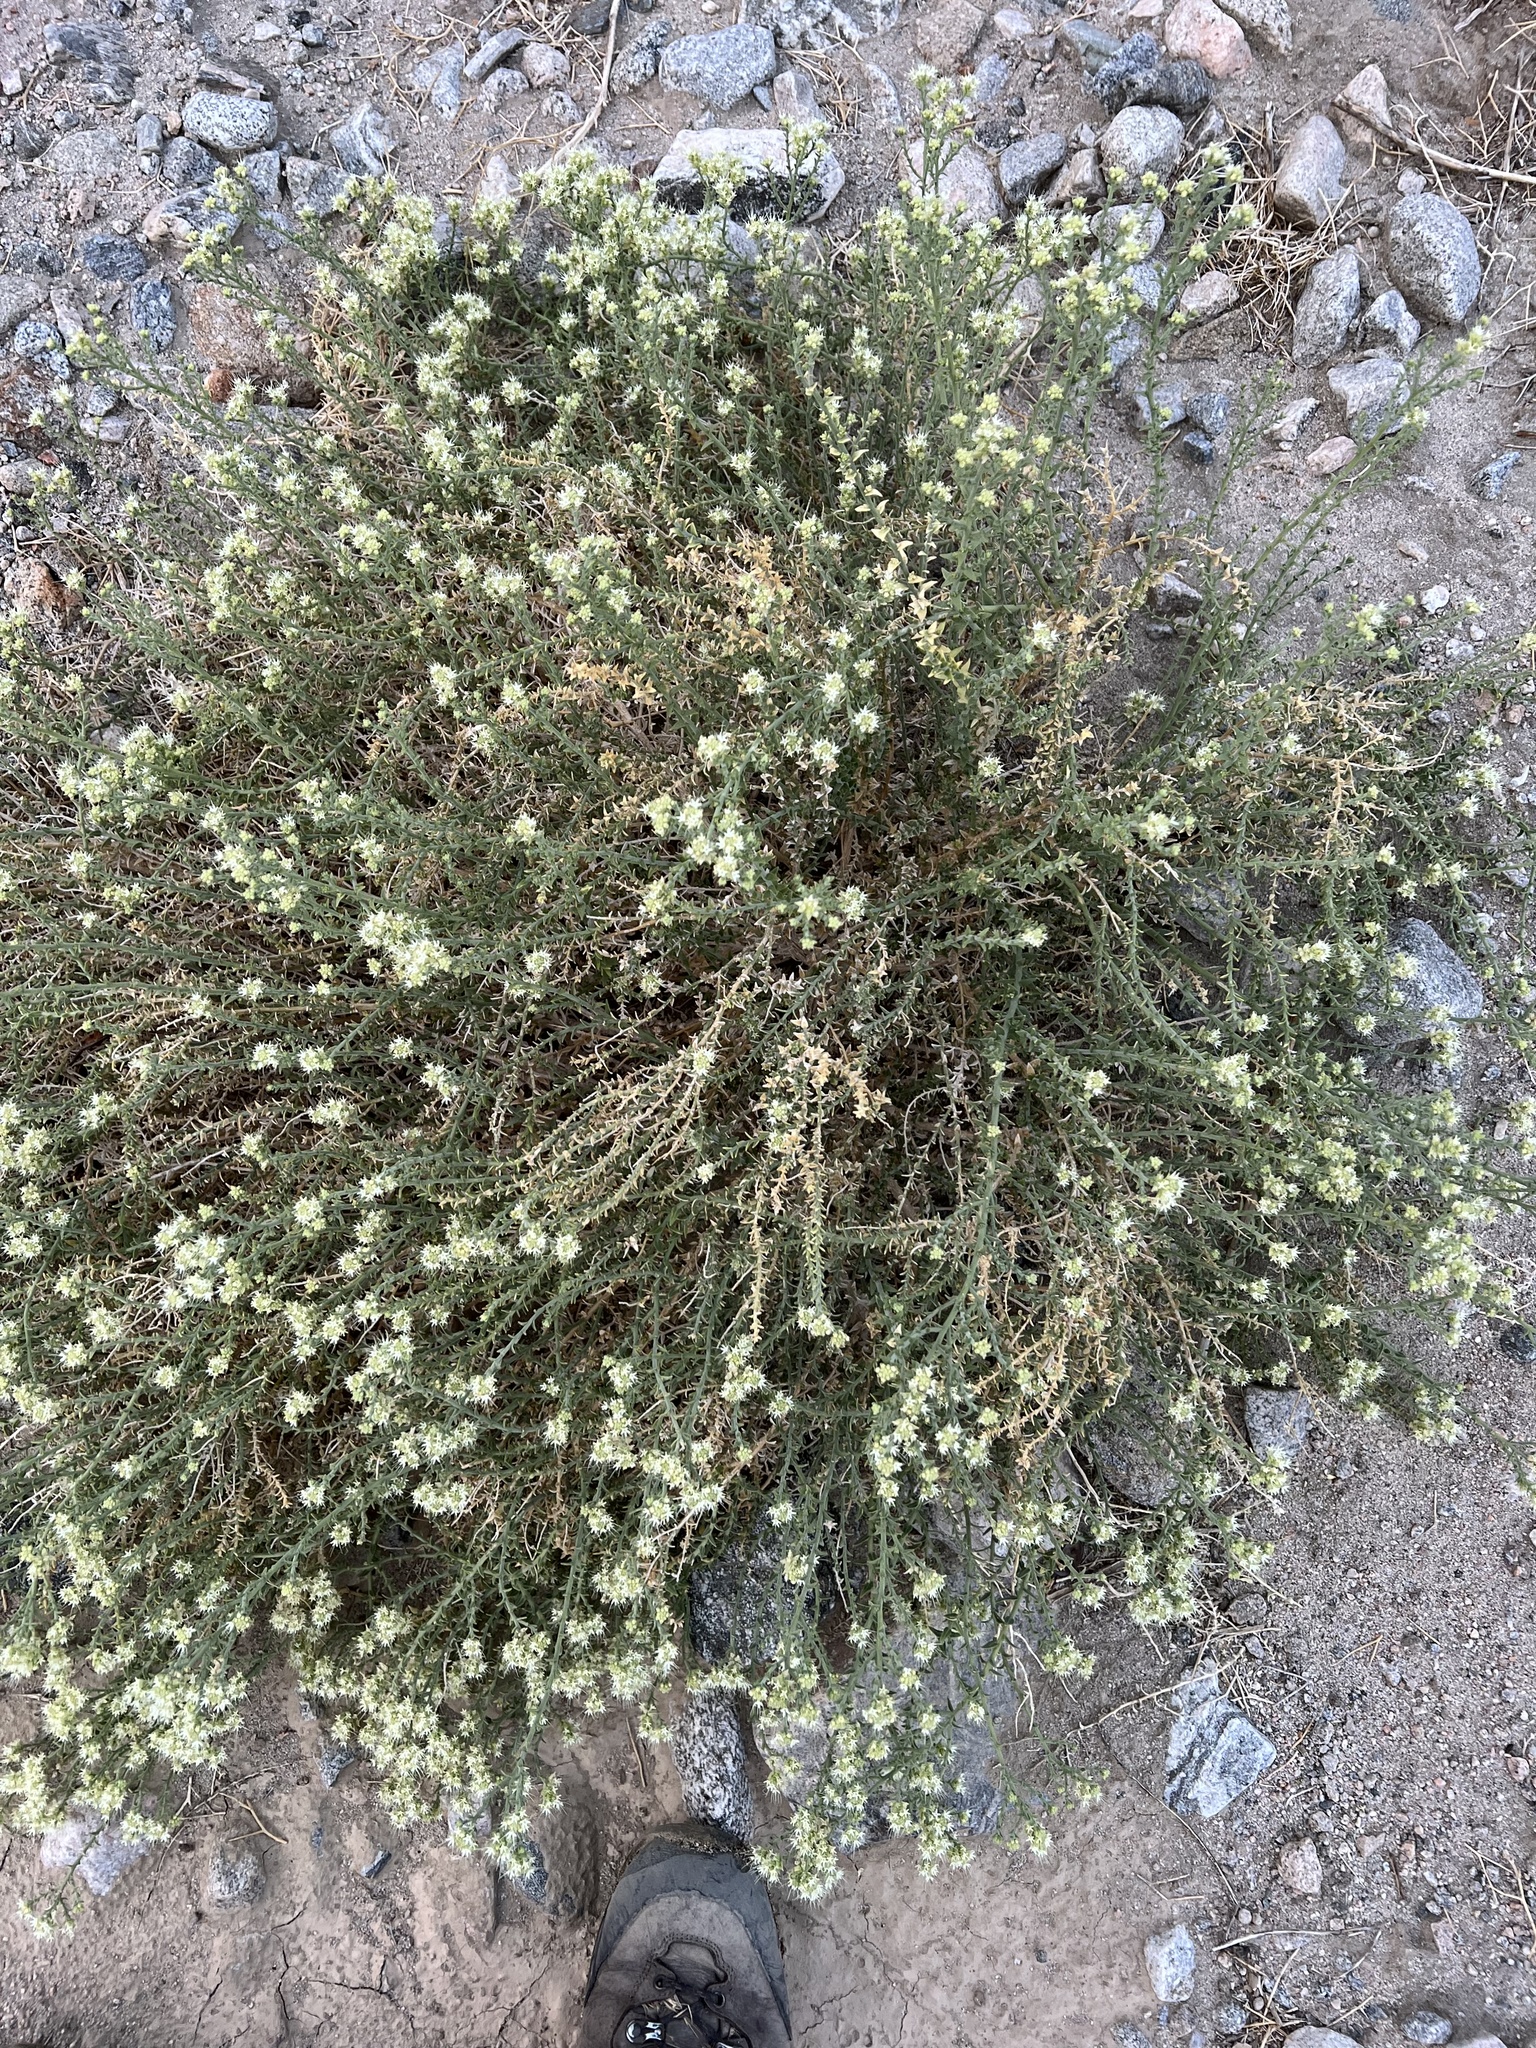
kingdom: Plantae
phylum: Tracheophyta
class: Magnoliopsida
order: Cornales
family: Loasaceae
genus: Petalonyx
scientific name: Petalonyx thurberi
